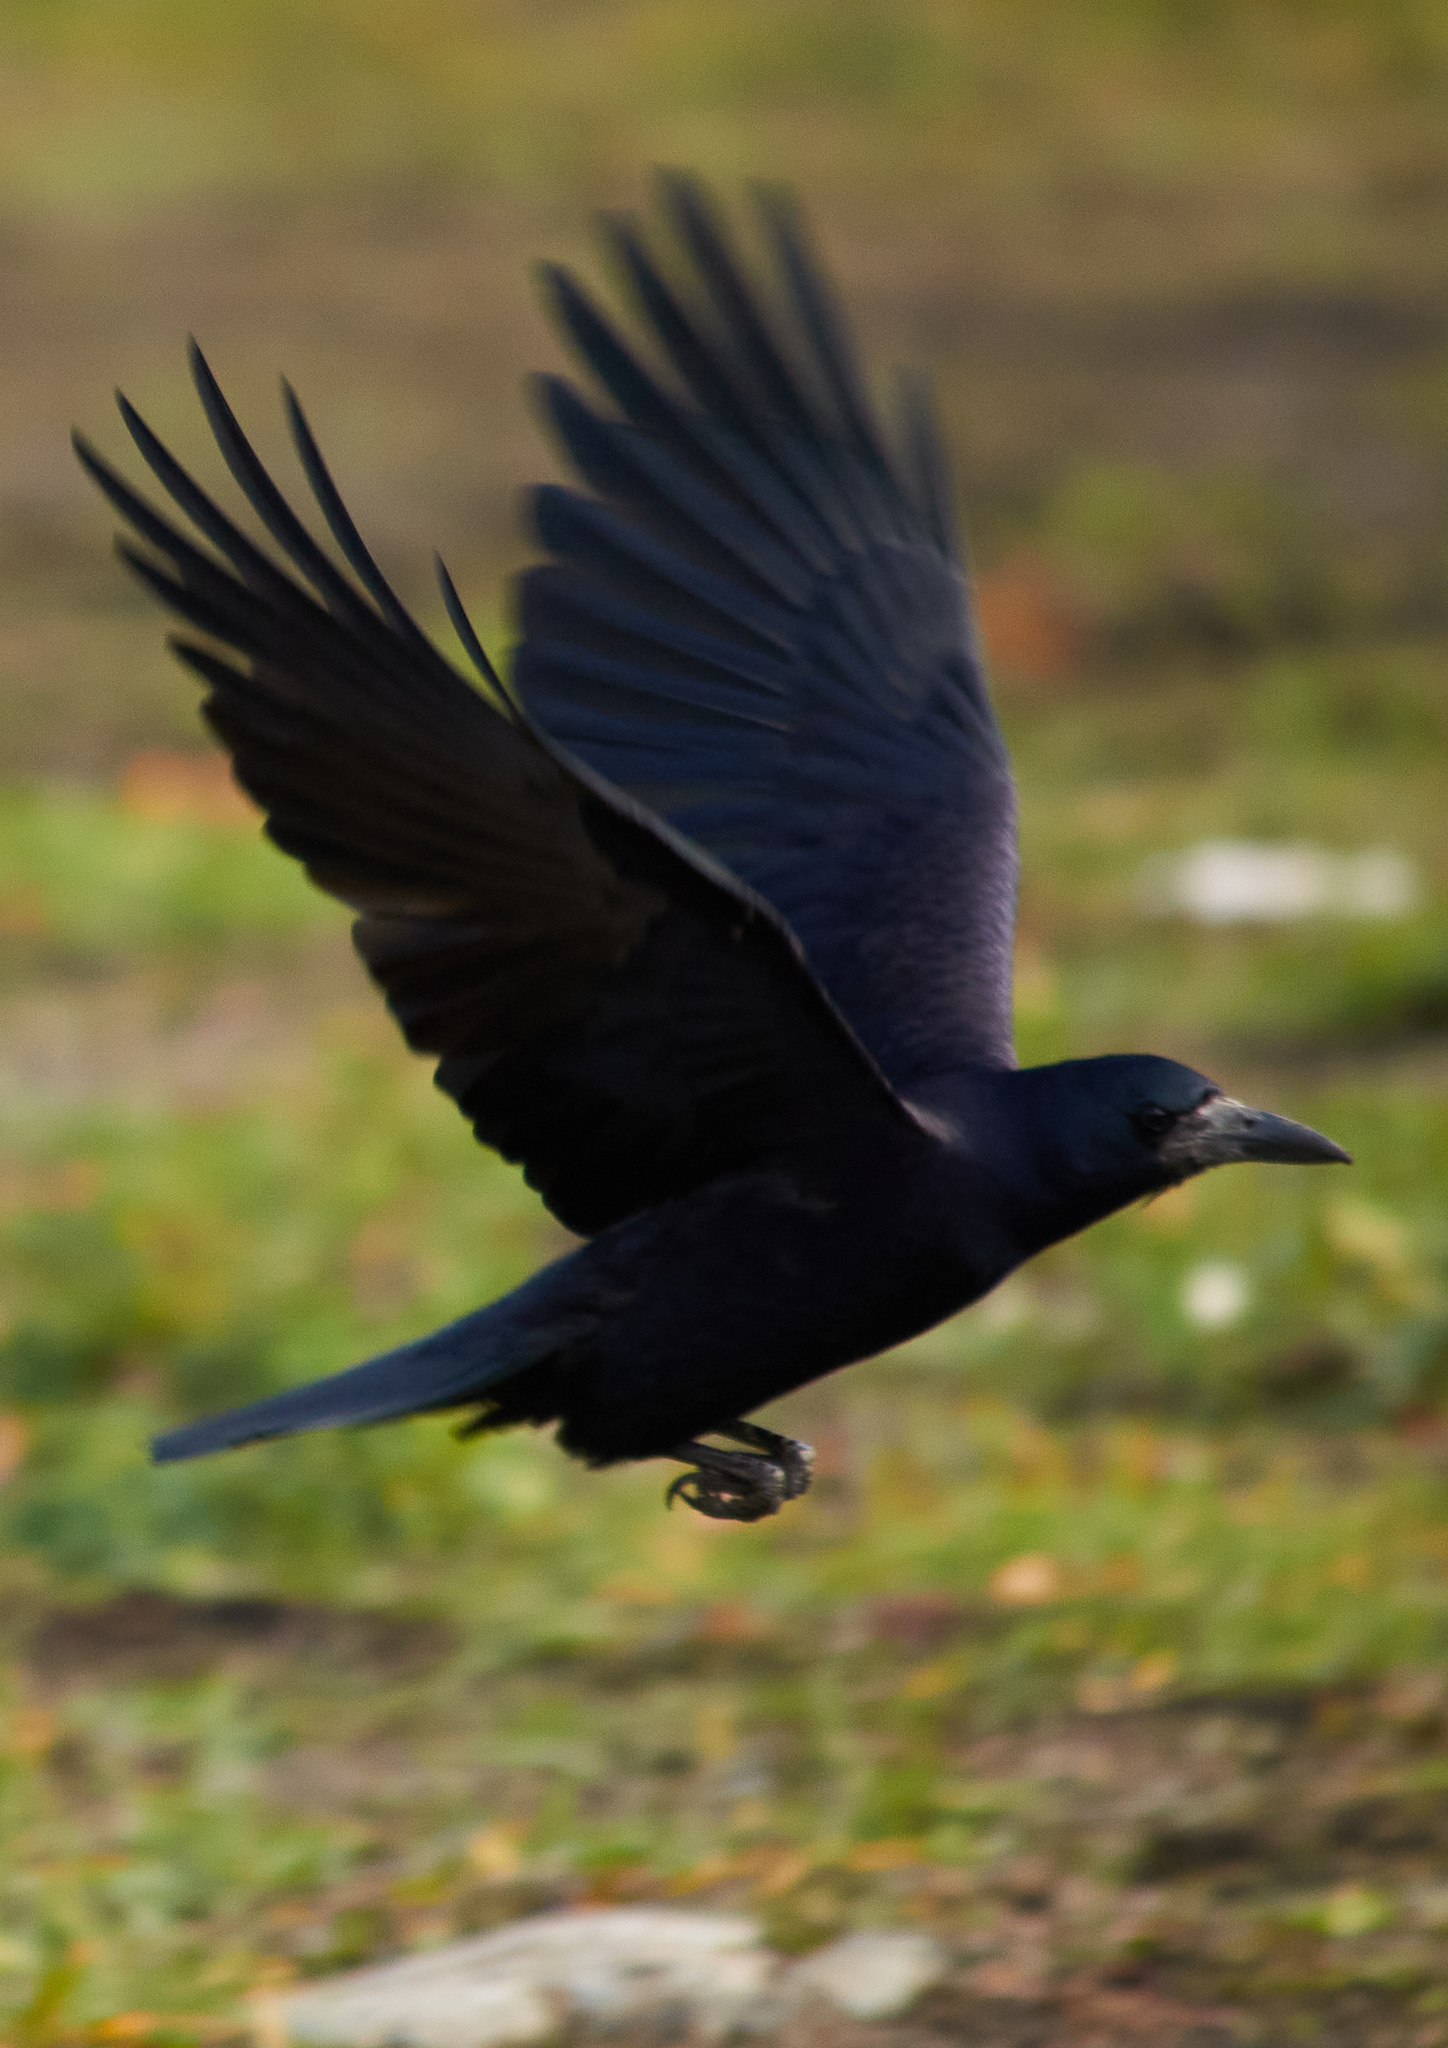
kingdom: Animalia
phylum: Chordata
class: Aves
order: Passeriformes
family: Corvidae
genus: Corvus
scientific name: Corvus frugilegus
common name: Rook
